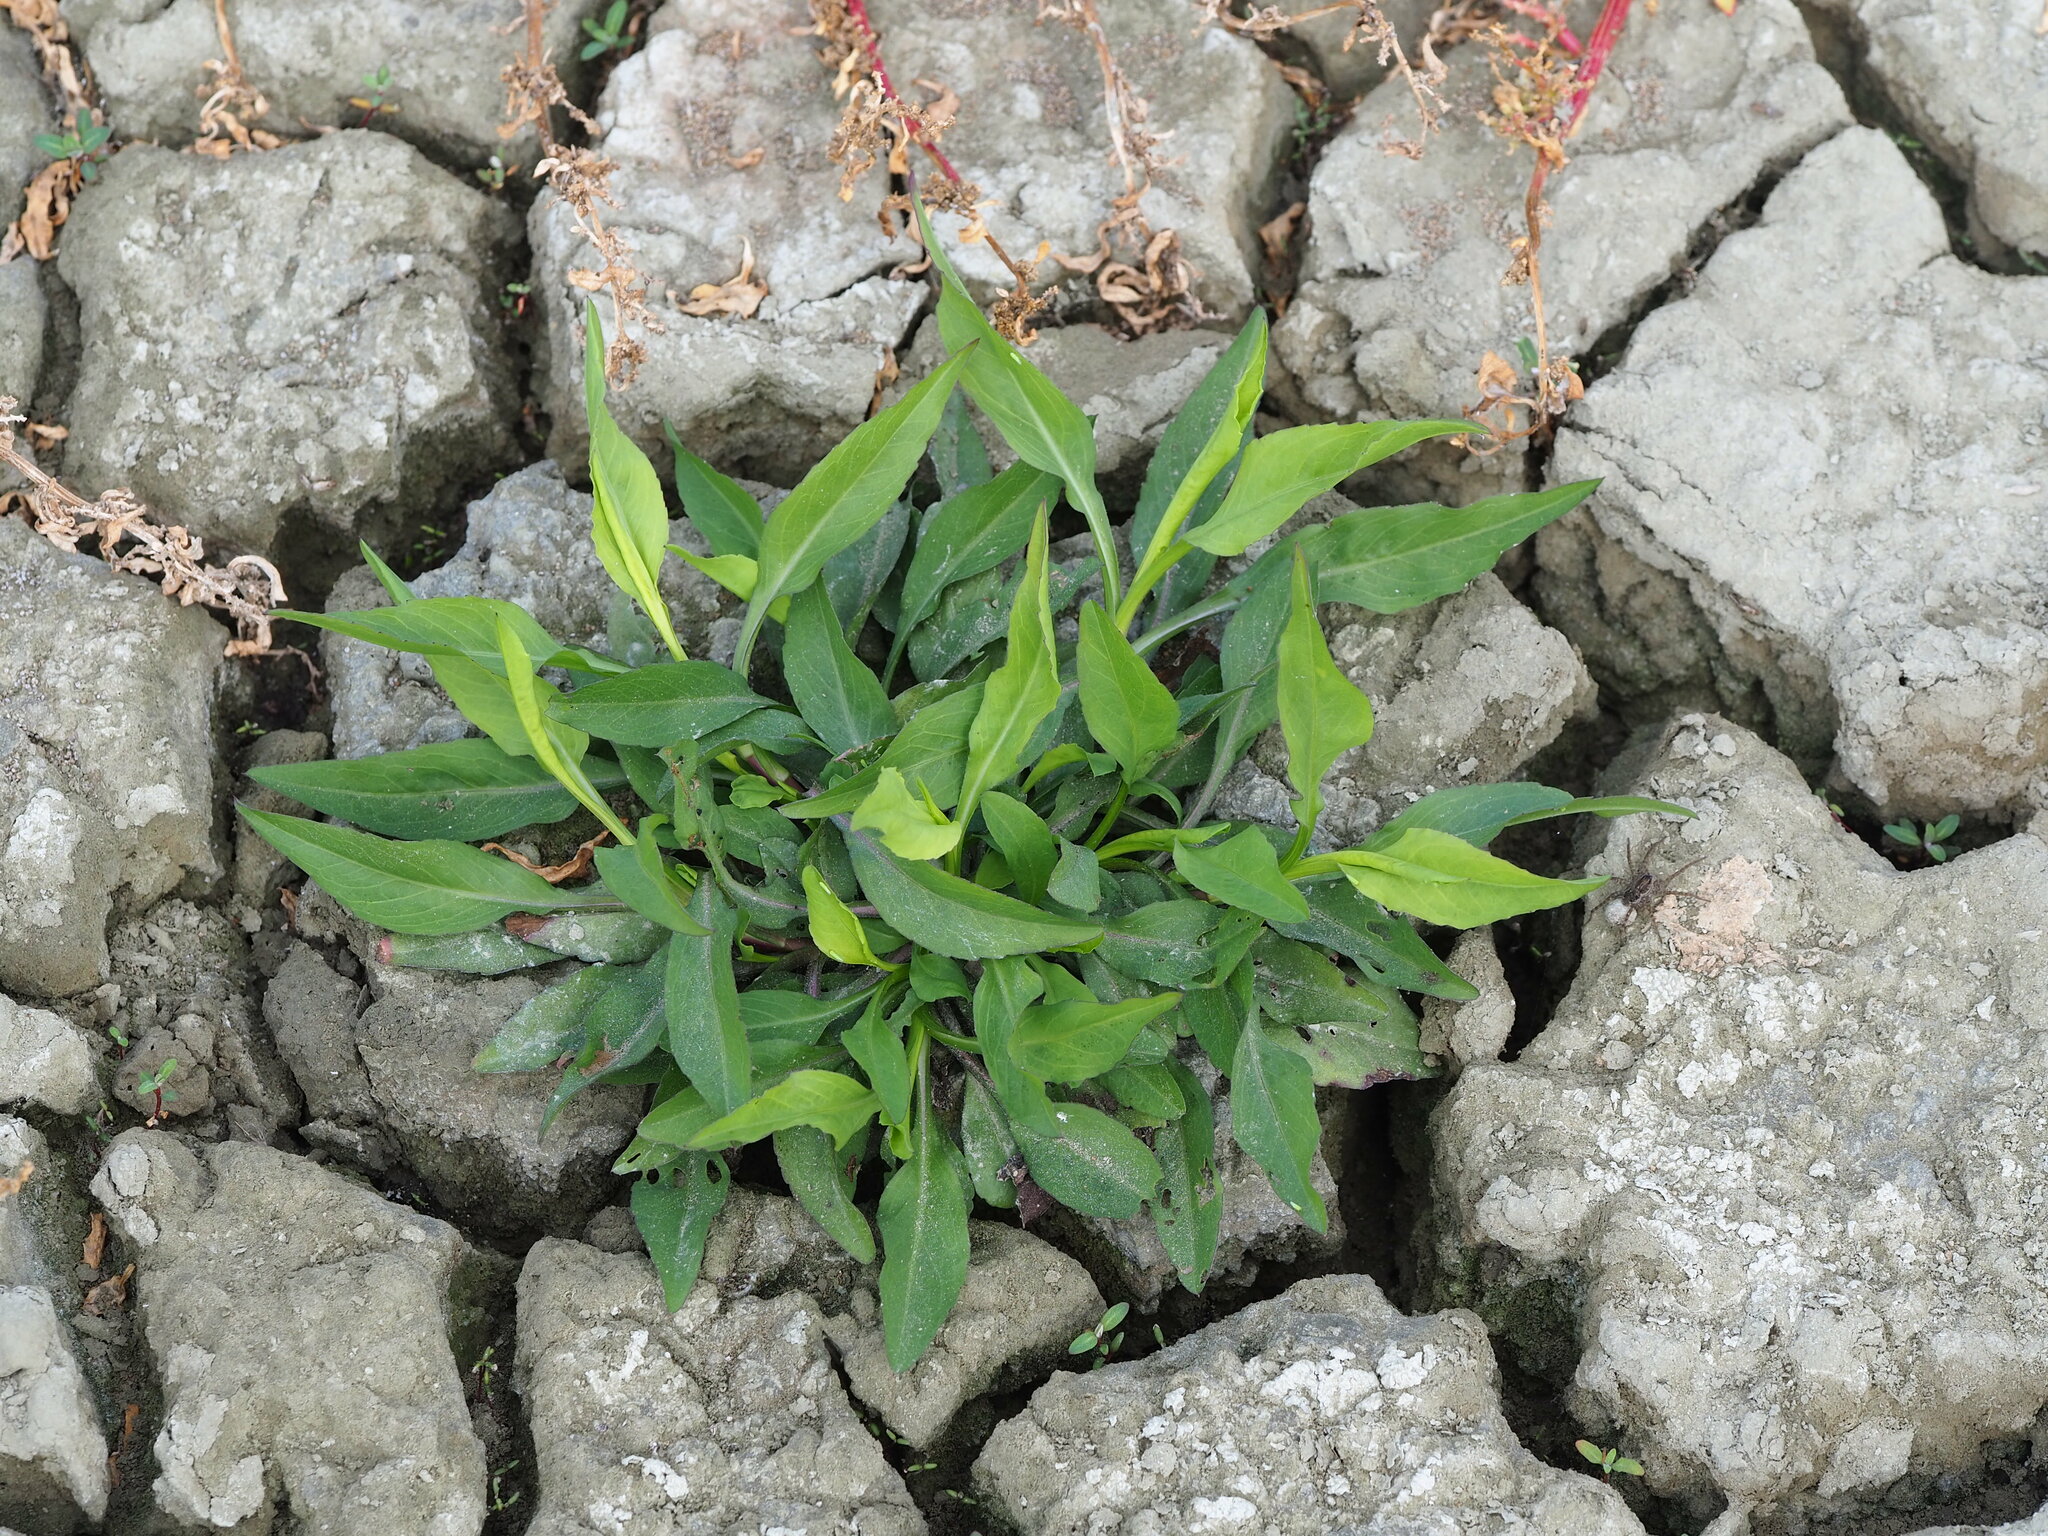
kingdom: Plantae
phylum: Tracheophyta
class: Magnoliopsida
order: Asterales
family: Asteraceae
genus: Symphyotrichum
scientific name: Symphyotrichum subulatum
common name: Annual saltmarsh aster
